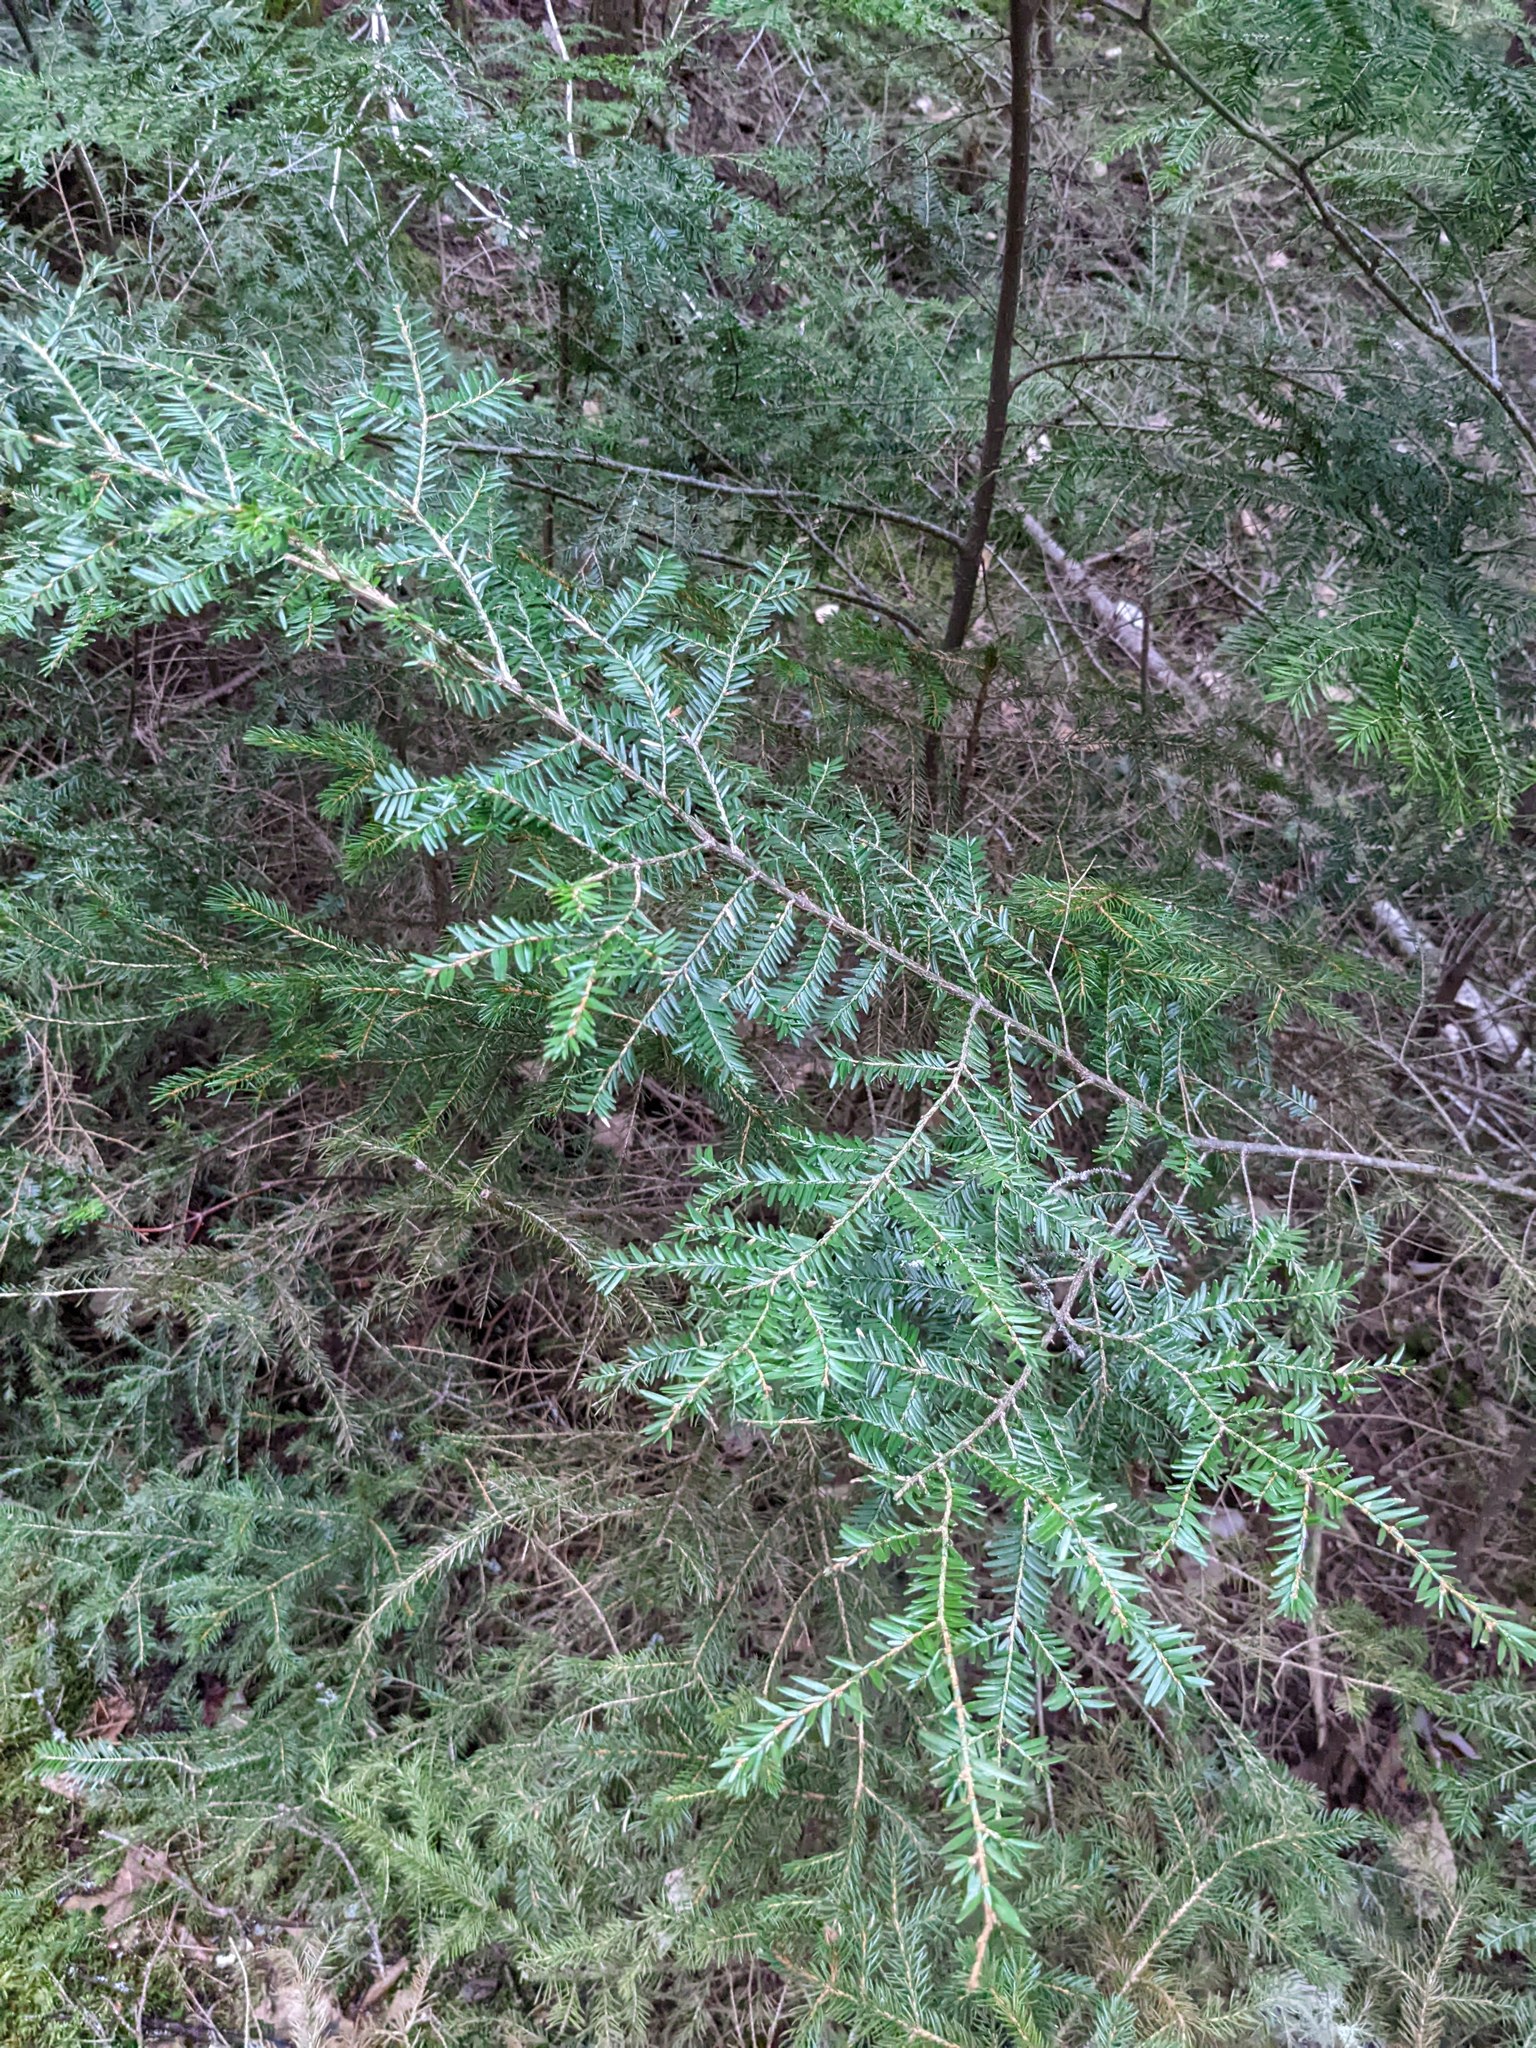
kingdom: Plantae
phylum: Tracheophyta
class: Pinopsida
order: Pinales
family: Pinaceae
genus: Tsuga
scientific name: Tsuga canadensis
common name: Eastern hemlock
